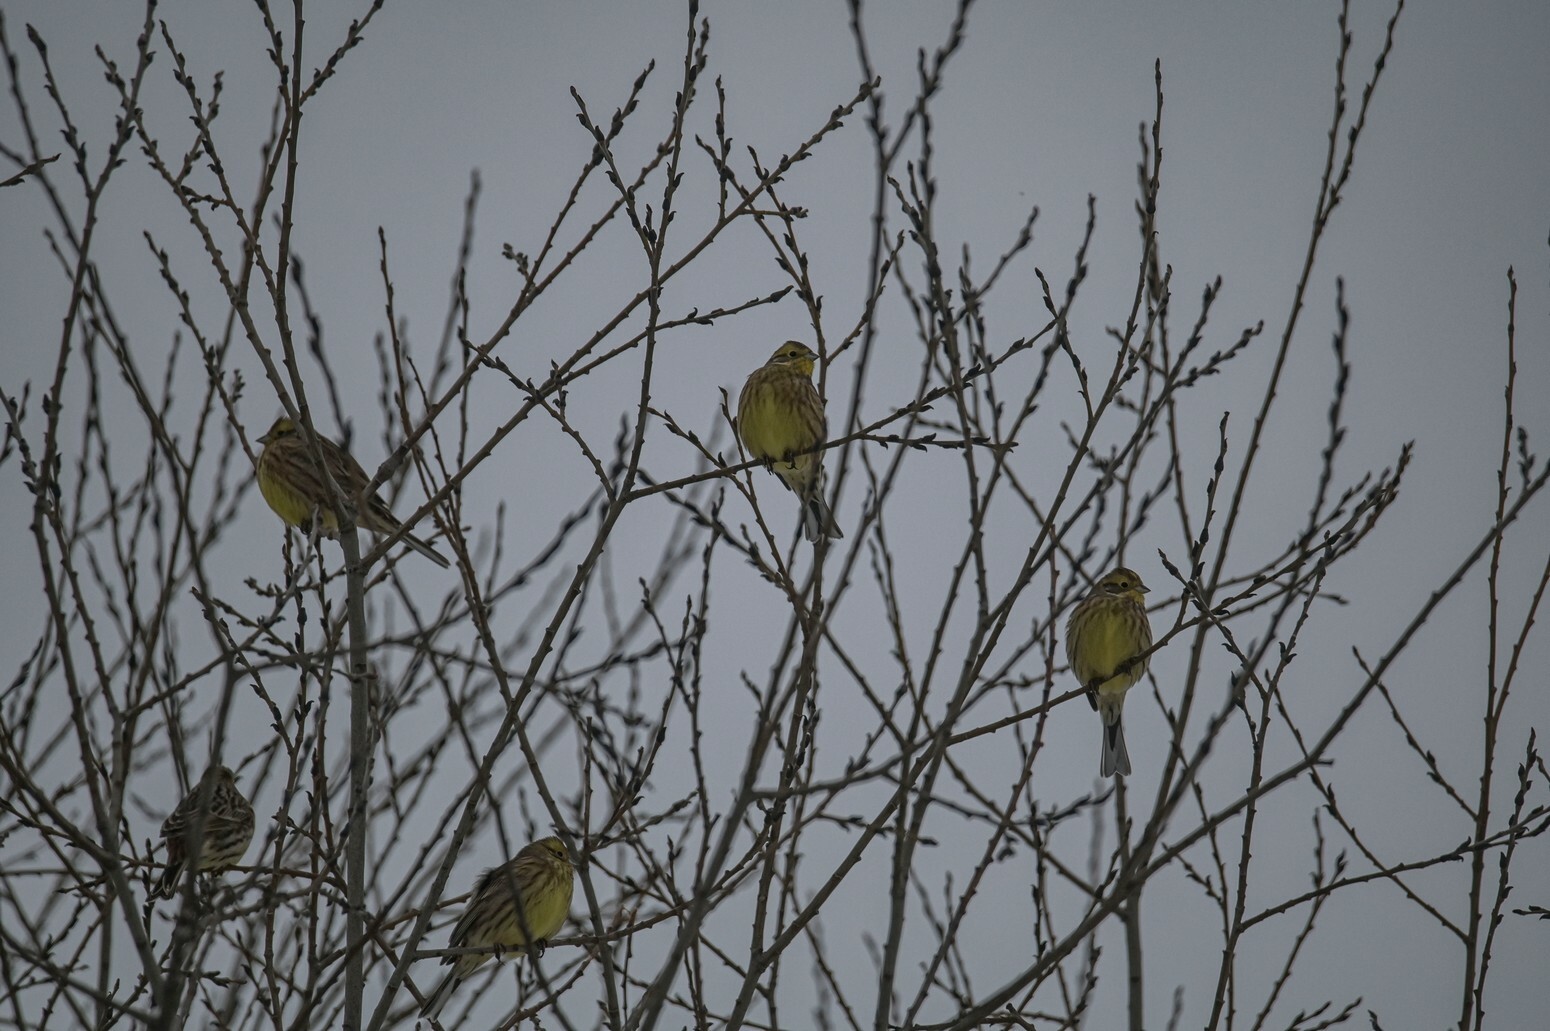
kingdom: Animalia
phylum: Chordata
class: Aves
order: Passeriformes
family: Emberizidae
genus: Emberiza
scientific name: Emberiza citrinella
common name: Yellowhammer
